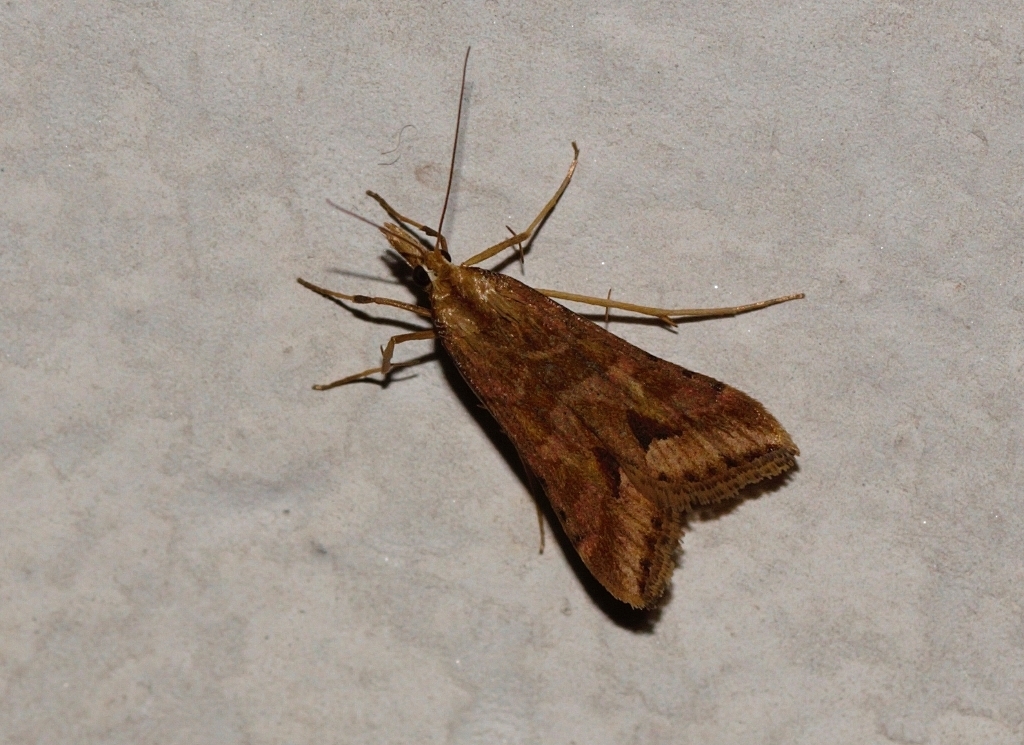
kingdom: Animalia
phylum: Arthropoda
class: Insecta
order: Lepidoptera
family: Crambidae
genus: Diasemia
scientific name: Diasemia monostigma
